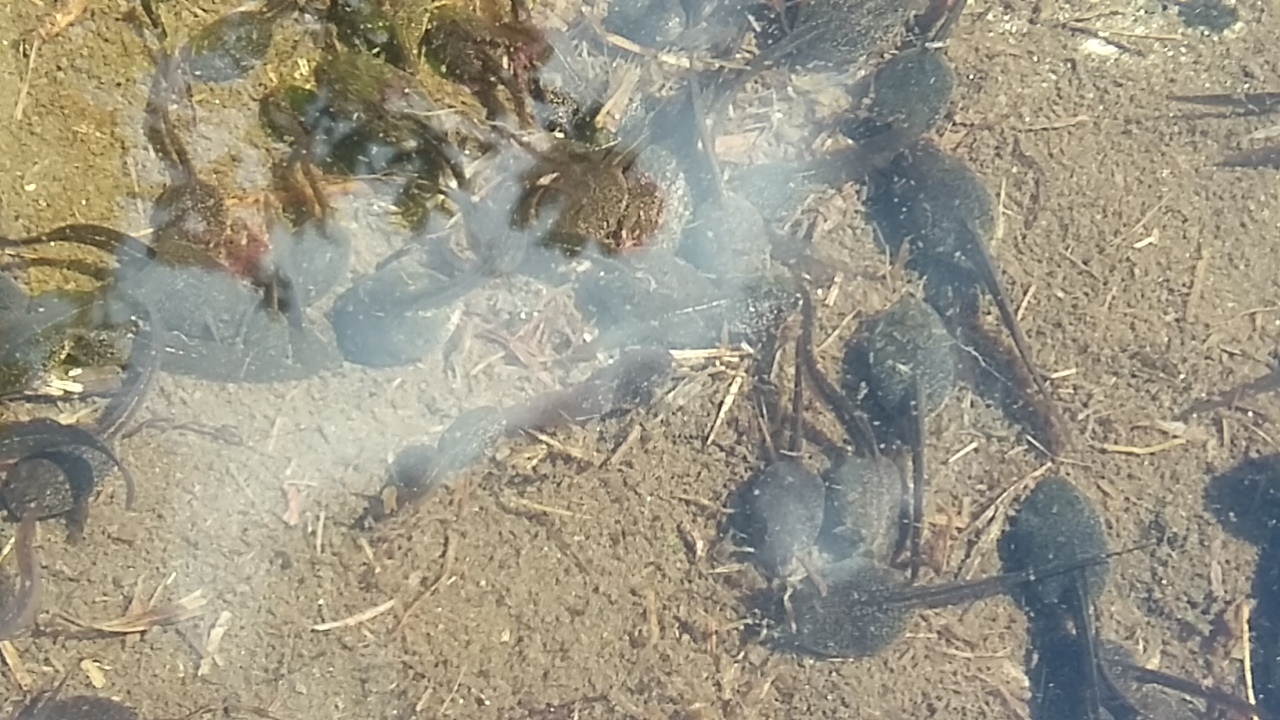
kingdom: Animalia
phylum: Chordata
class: Amphibia
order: Anura
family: Ranidae
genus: Rana
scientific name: Rana temporaria
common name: Common frog
